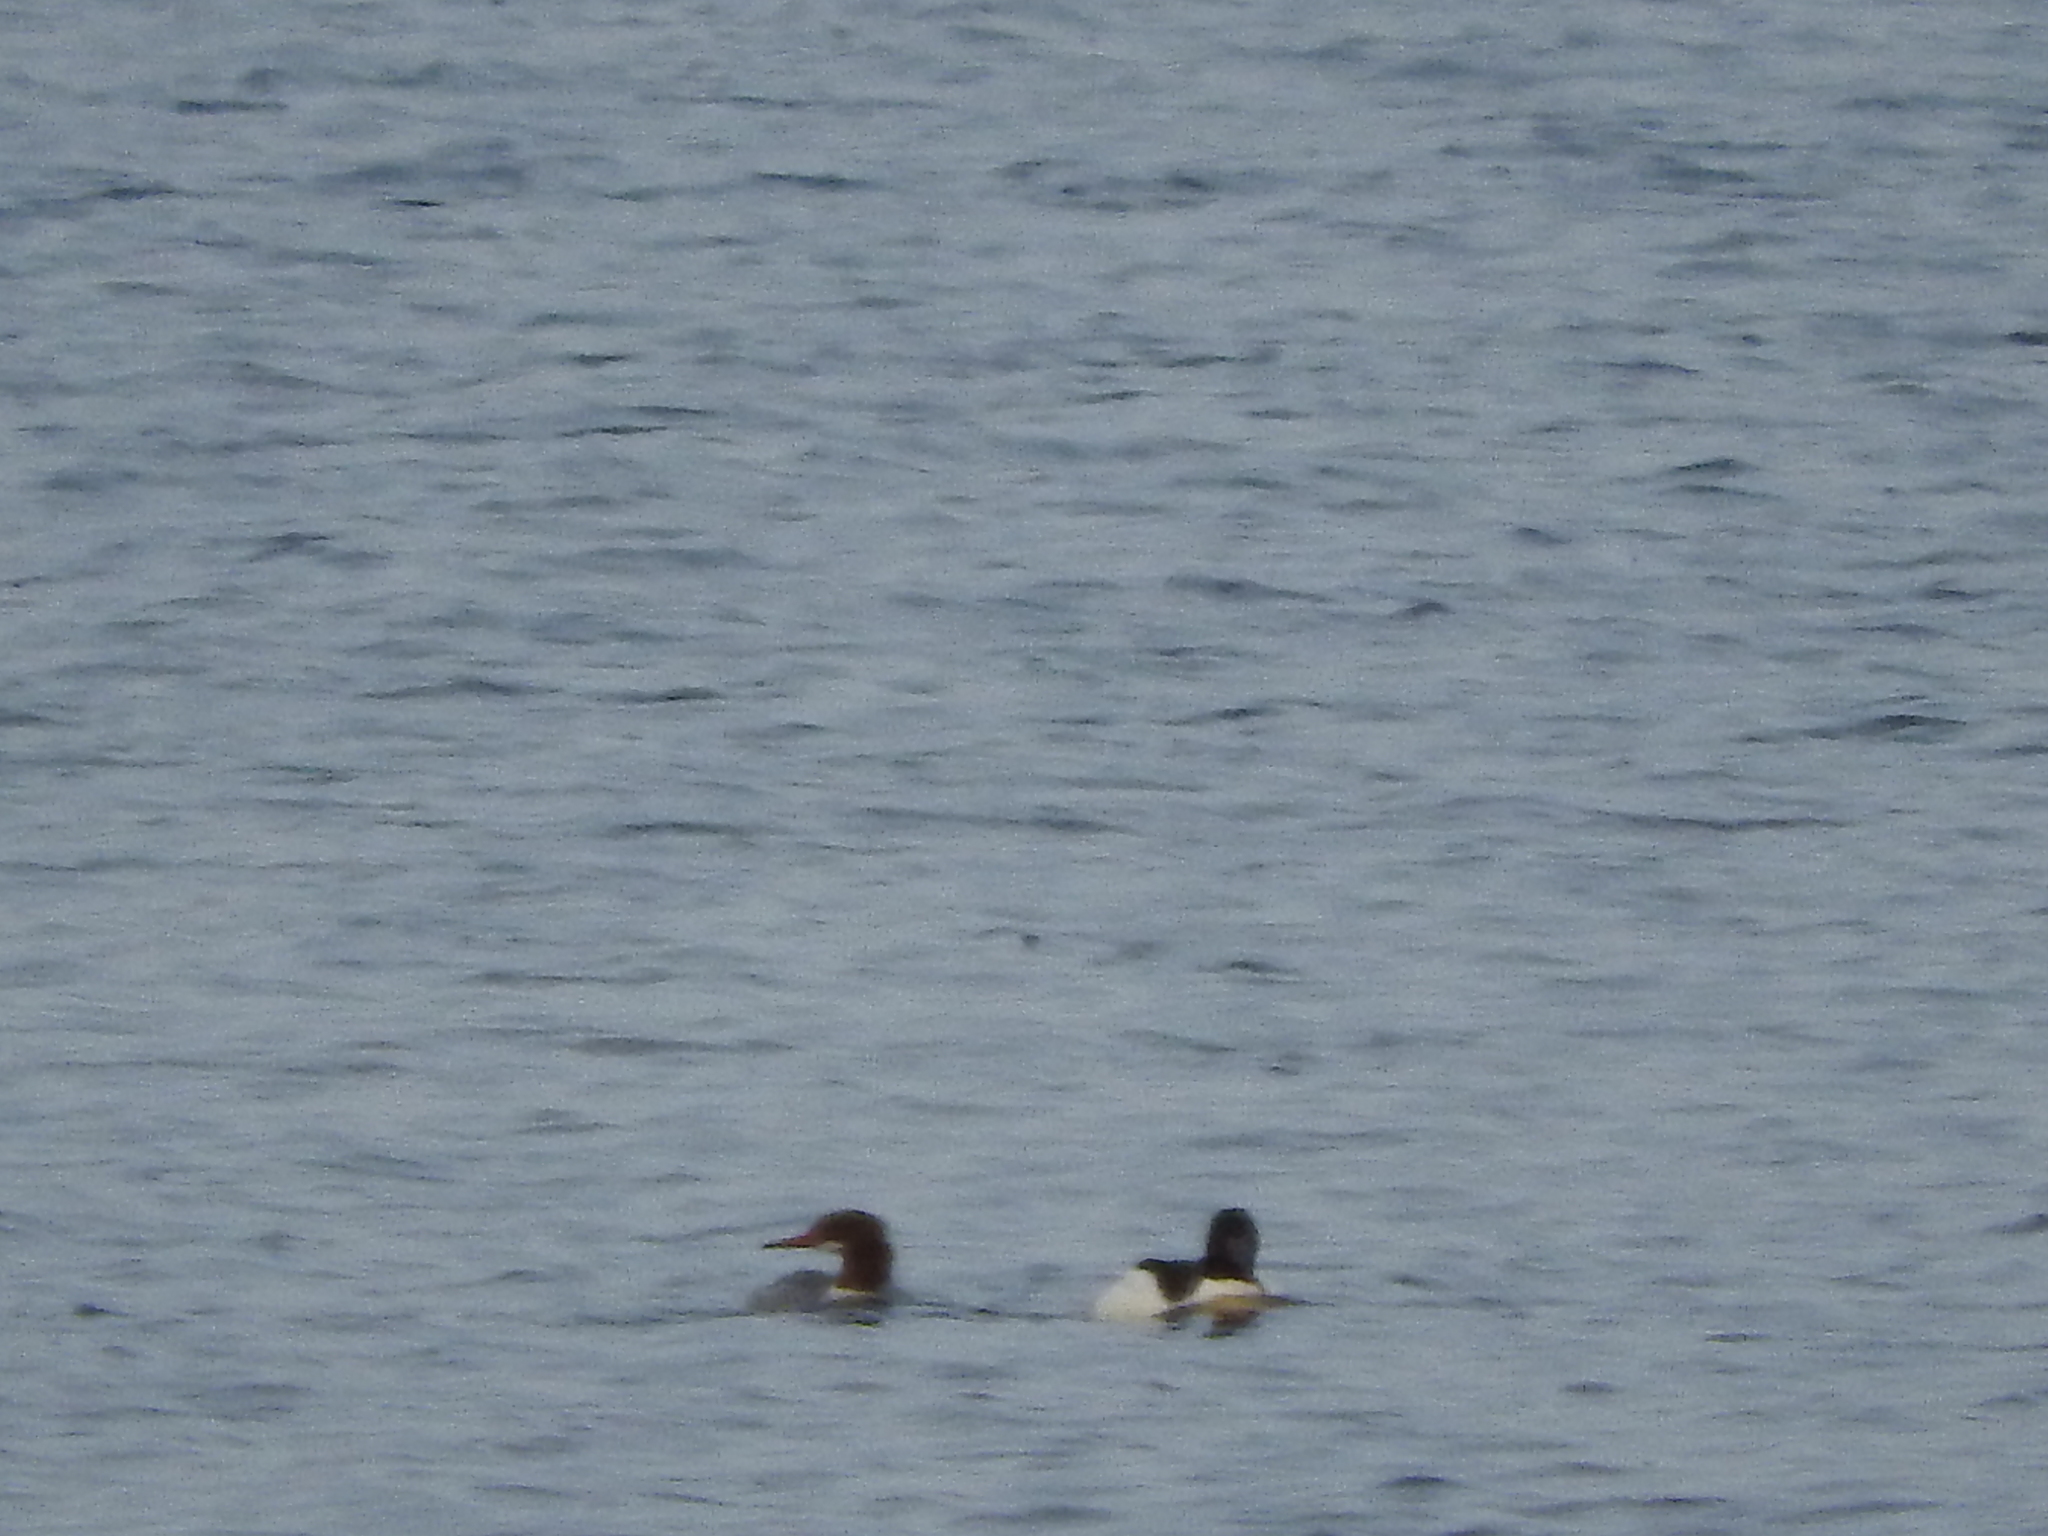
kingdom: Animalia
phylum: Chordata
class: Aves
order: Anseriformes
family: Anatidae
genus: Mergus
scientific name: Mergus merganser
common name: Common merganser
